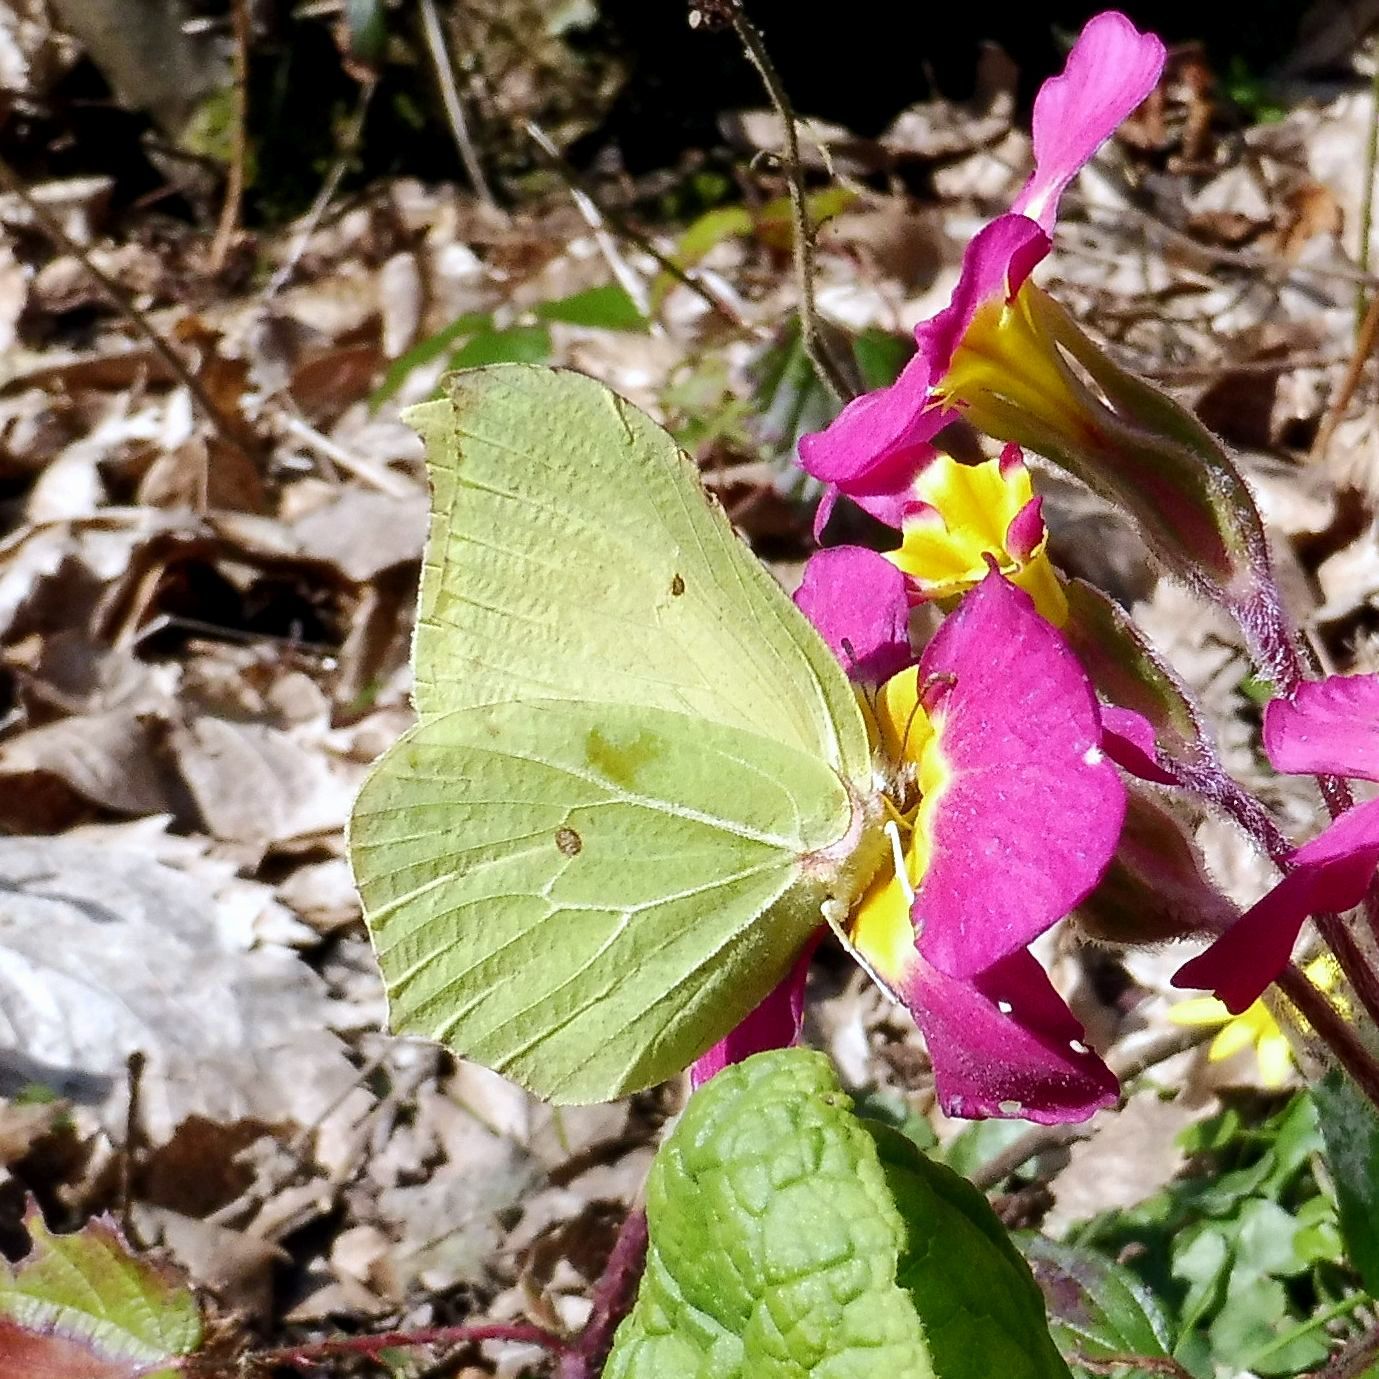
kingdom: Animalia
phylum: Arthropoda
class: Insecta
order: Lepidoptera
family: Pieridae
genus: Gonepteryx
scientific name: Gonepteryx rhamni
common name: Brimstone
